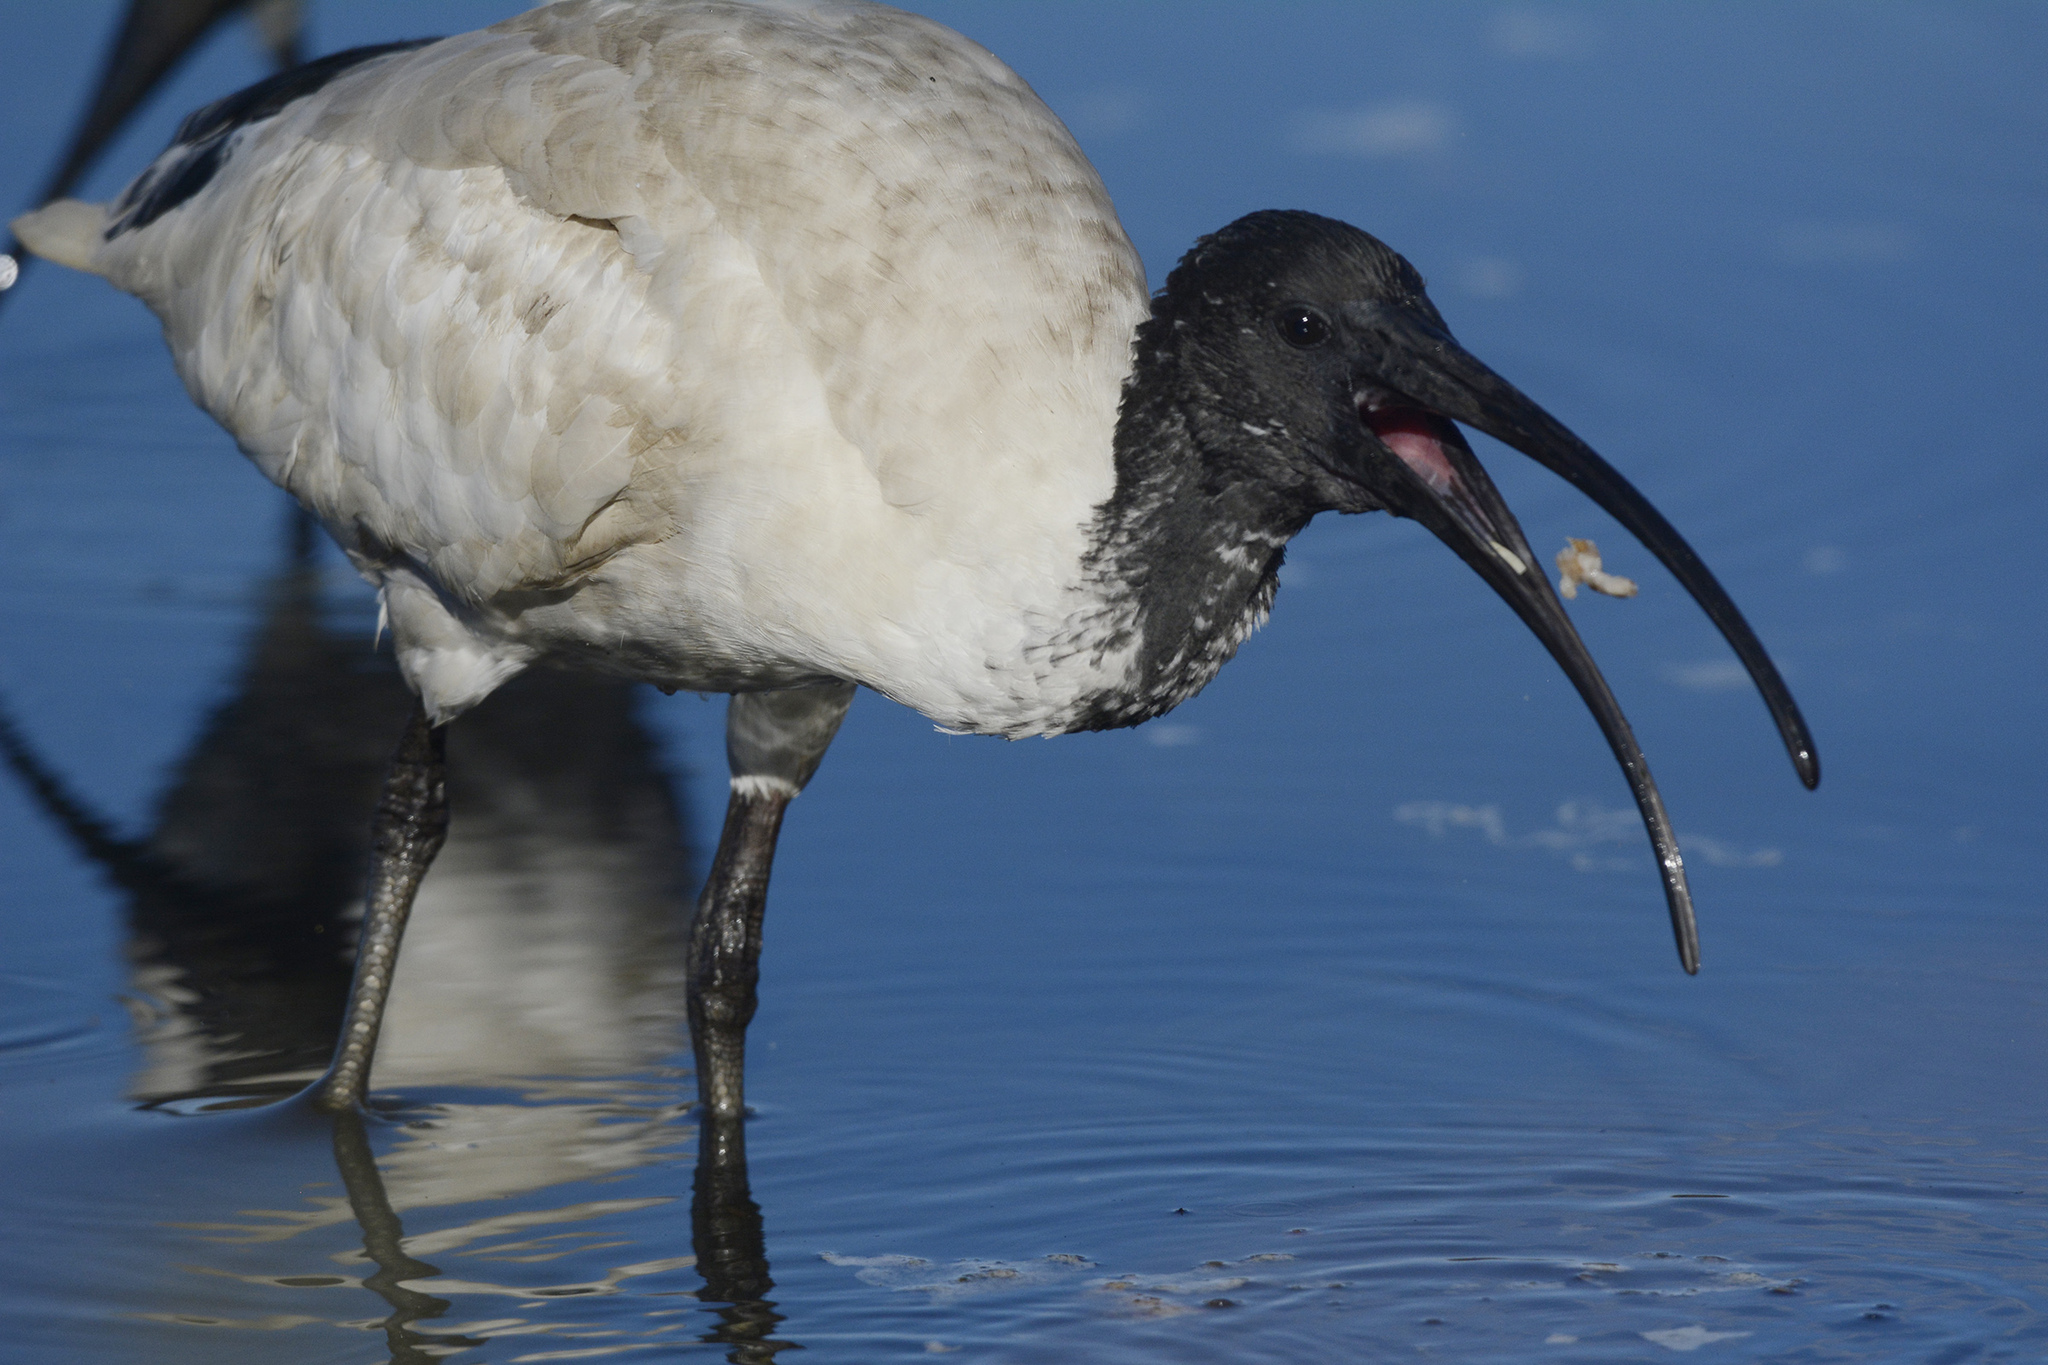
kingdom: Animalia
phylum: Chordata
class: Aves
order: Pelecaniformes
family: Threskiornithidae
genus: Threskiornis
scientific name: Threskiornis molucca
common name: Australian white ibis
